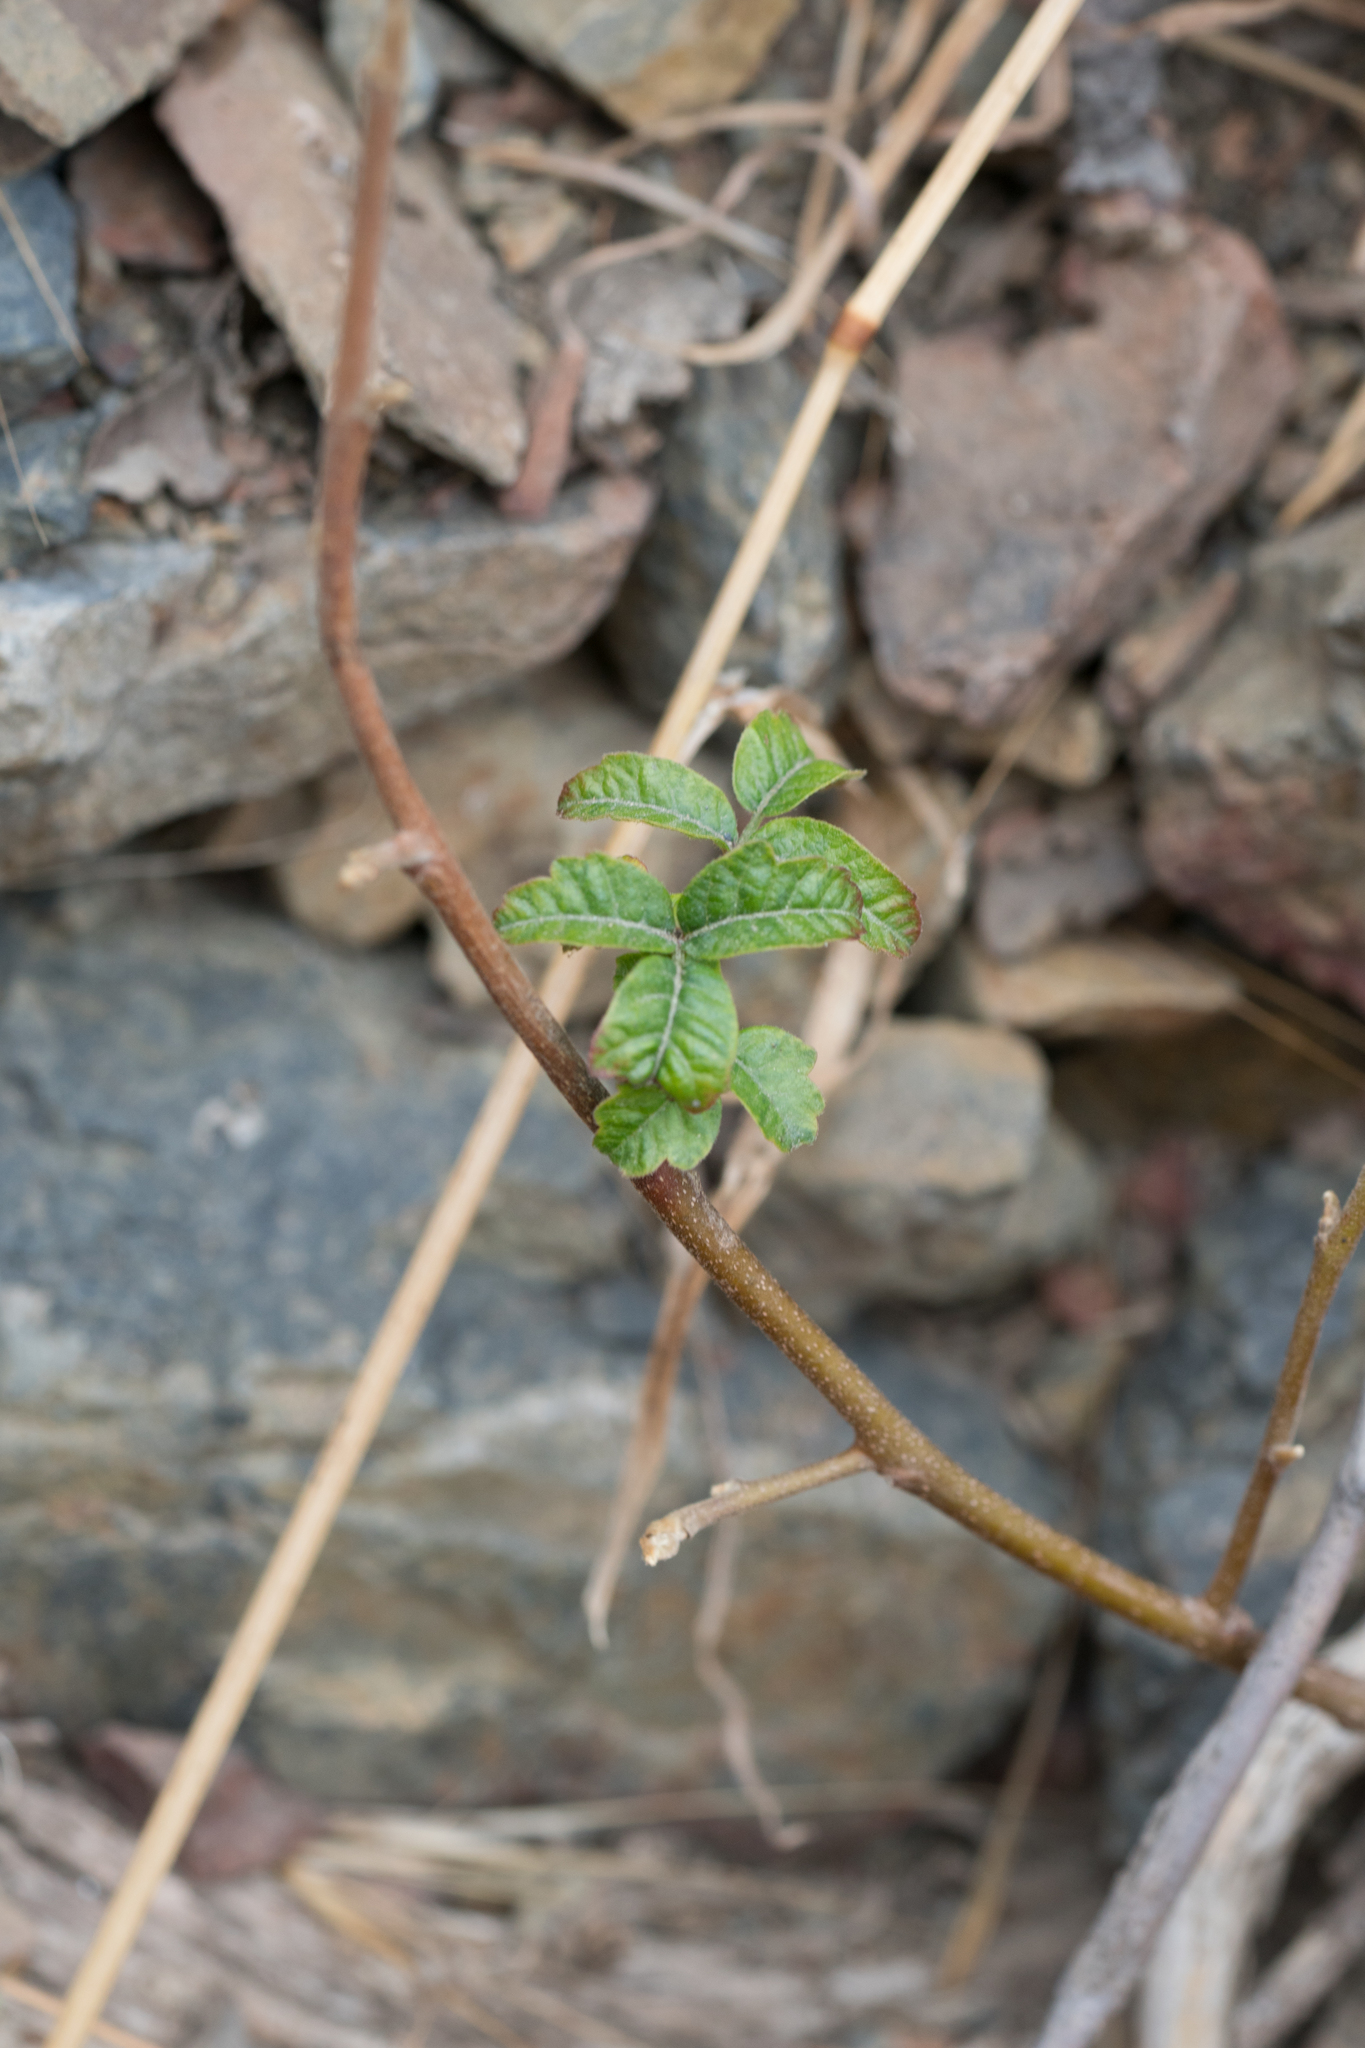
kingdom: Plantae
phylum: Tracheophyta
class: Magnoliopsida
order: Sapindales
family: Anacardiaceae
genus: Toxicodendron
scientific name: Toxicodendron diversilobum
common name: Pacific poison-oak
